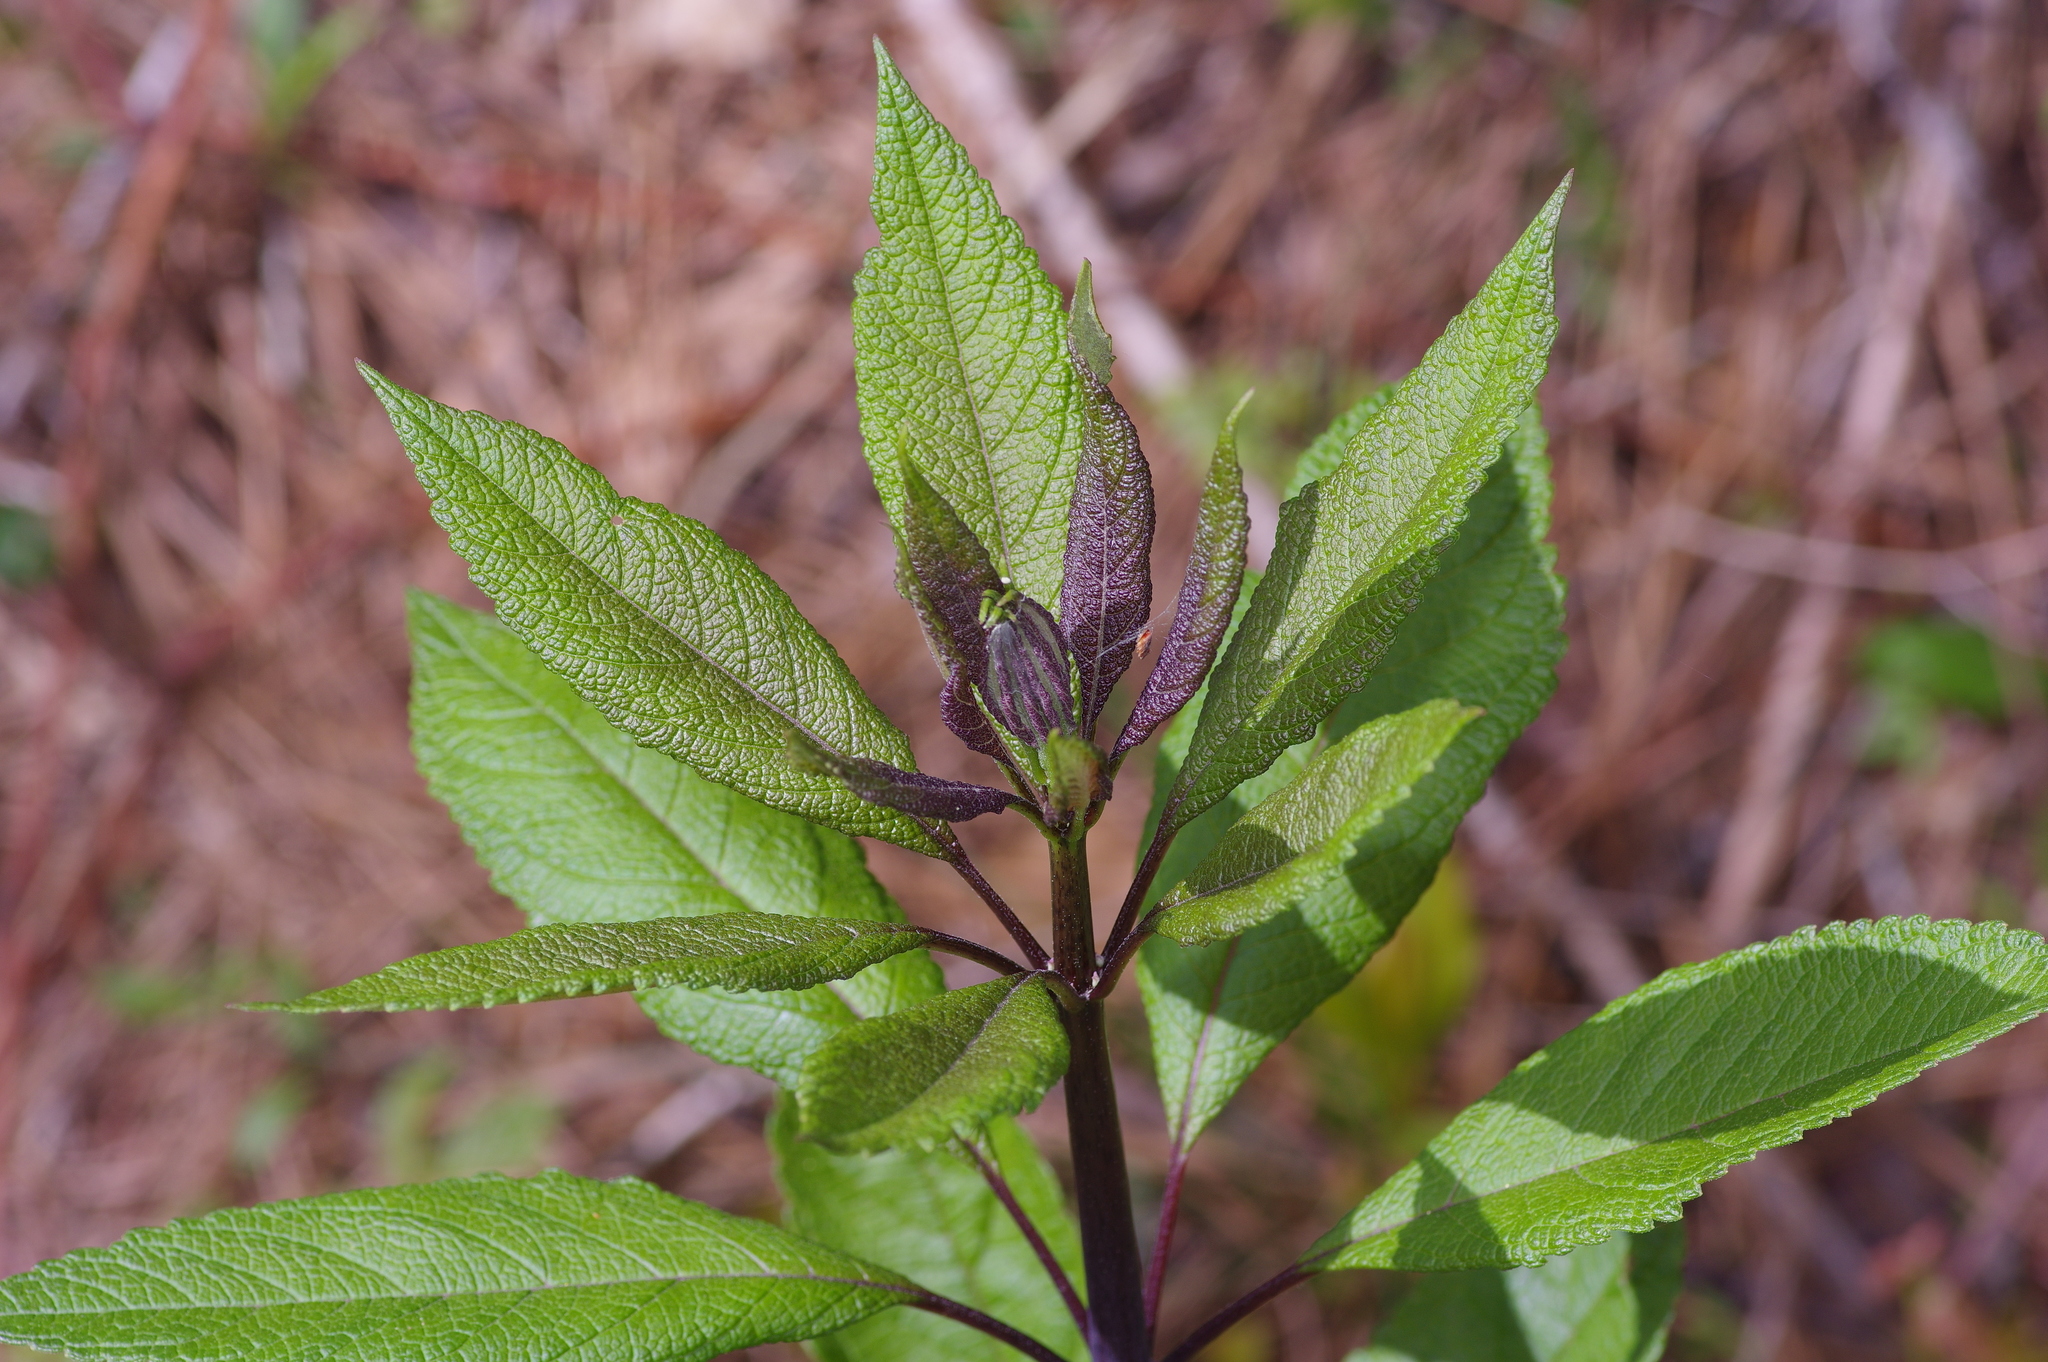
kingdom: Plantae
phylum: Tracheophyta
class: Magnoliopsida
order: Asterales
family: Asteraceae
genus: Eutrochium
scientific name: Eutrochium fistulosum
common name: Trumpetweed
